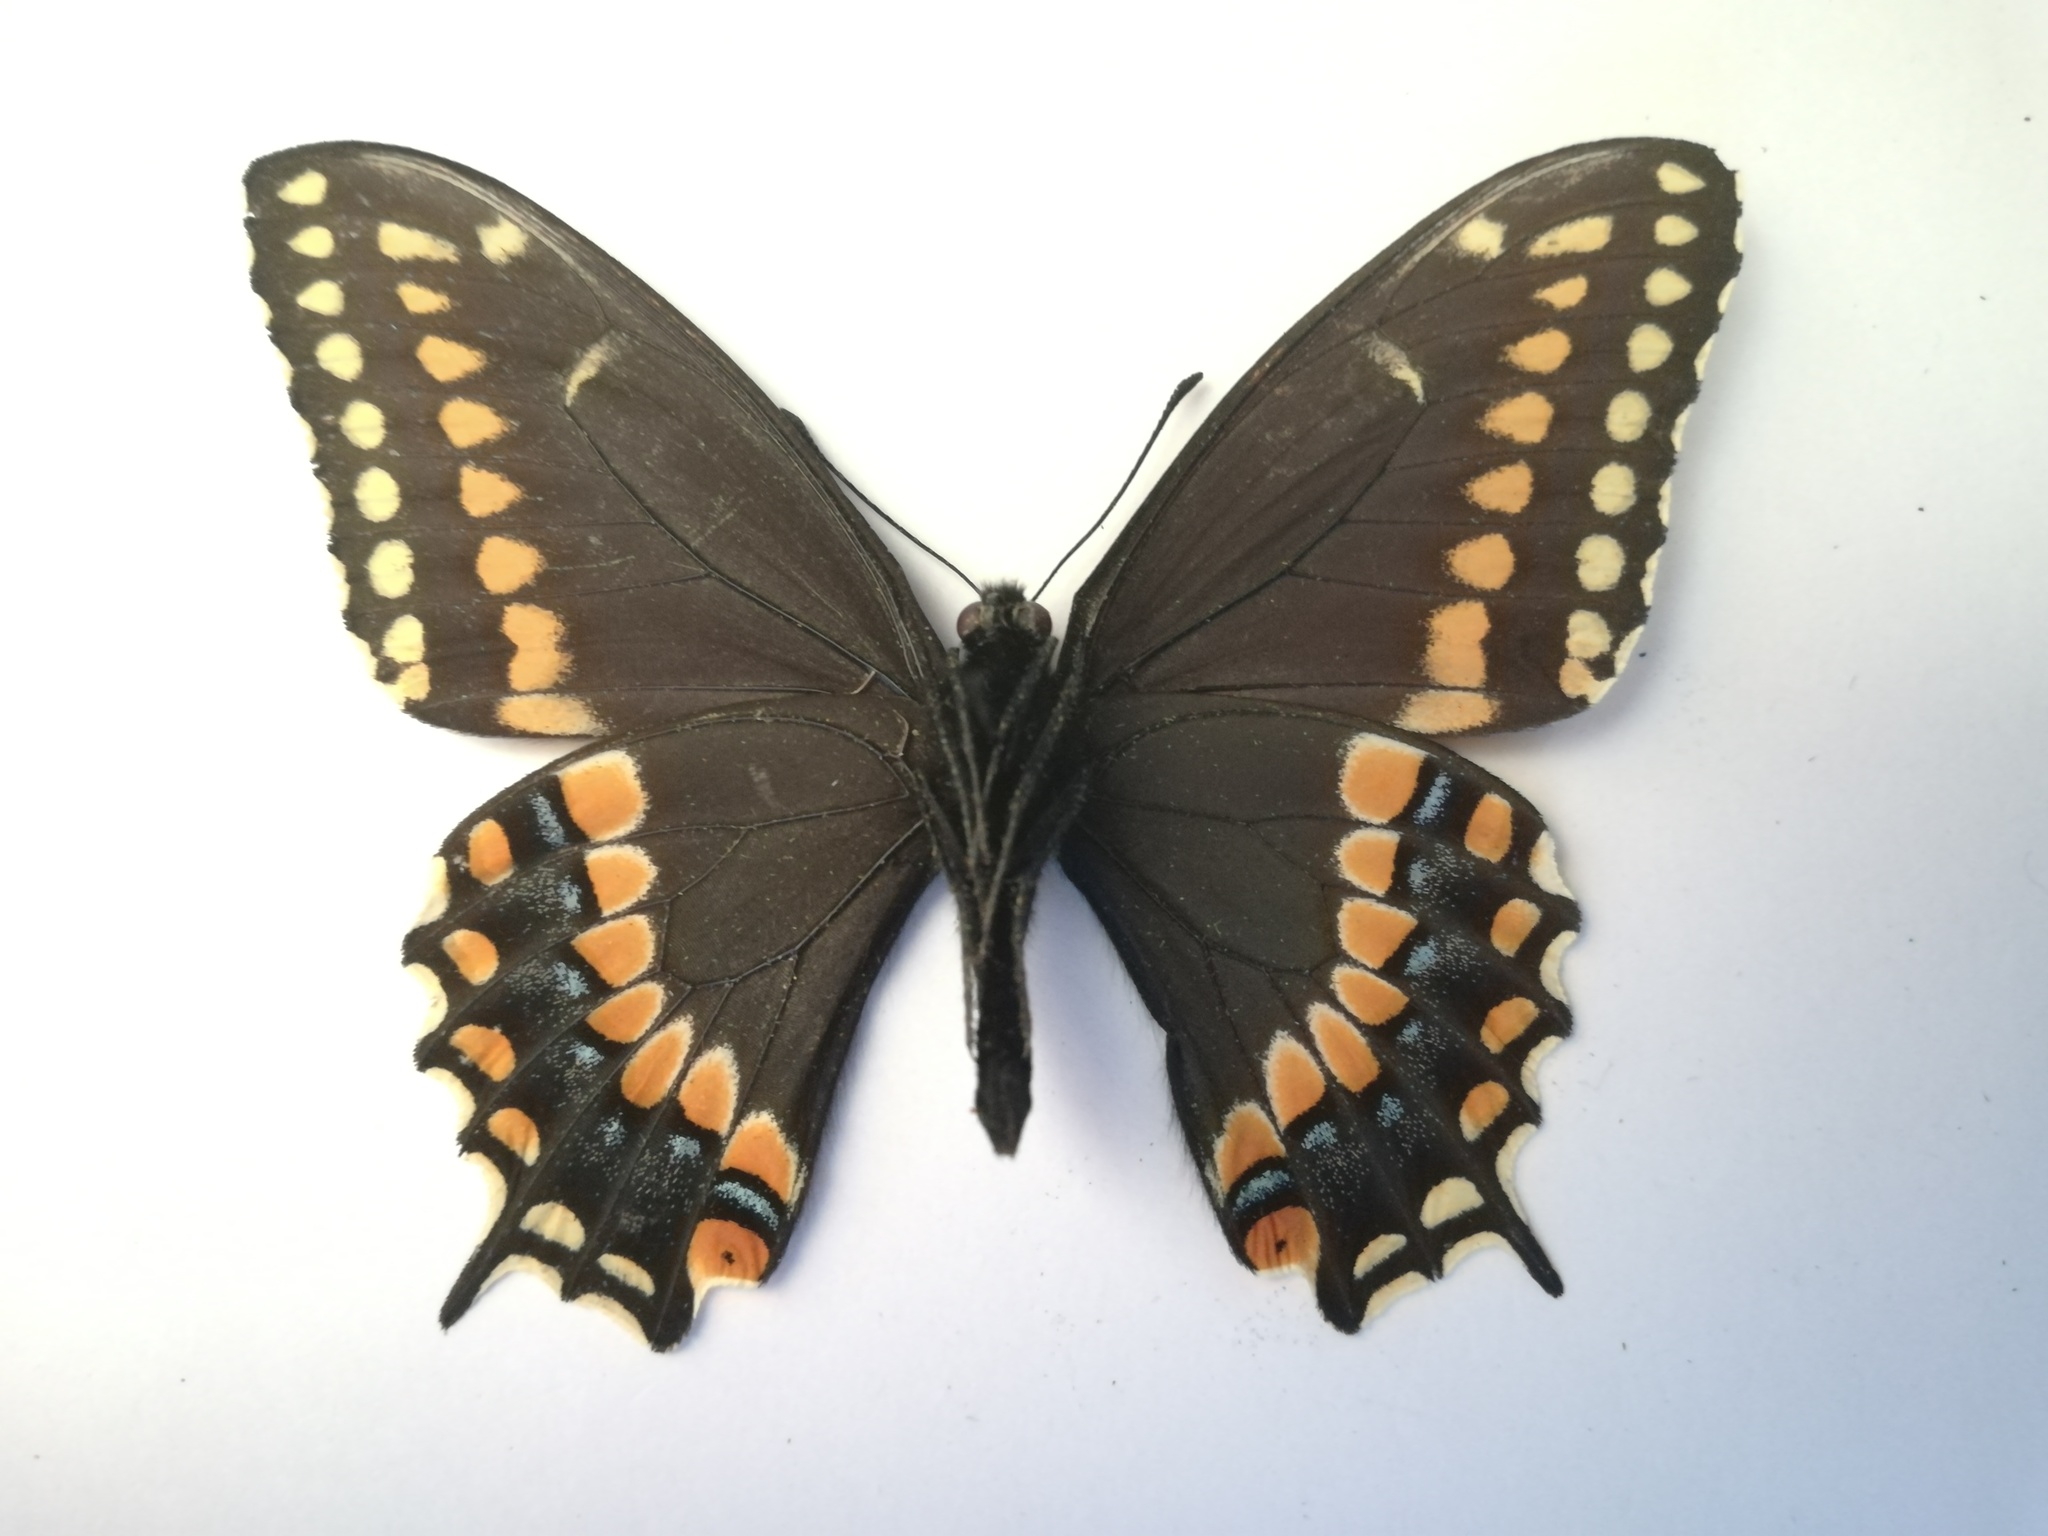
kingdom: Animalia
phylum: Arthropoda
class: Insecta
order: Lepidoptera
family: Papilionidae
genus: Papilio
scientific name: Papilio polyxenes
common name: Black swallowtail
